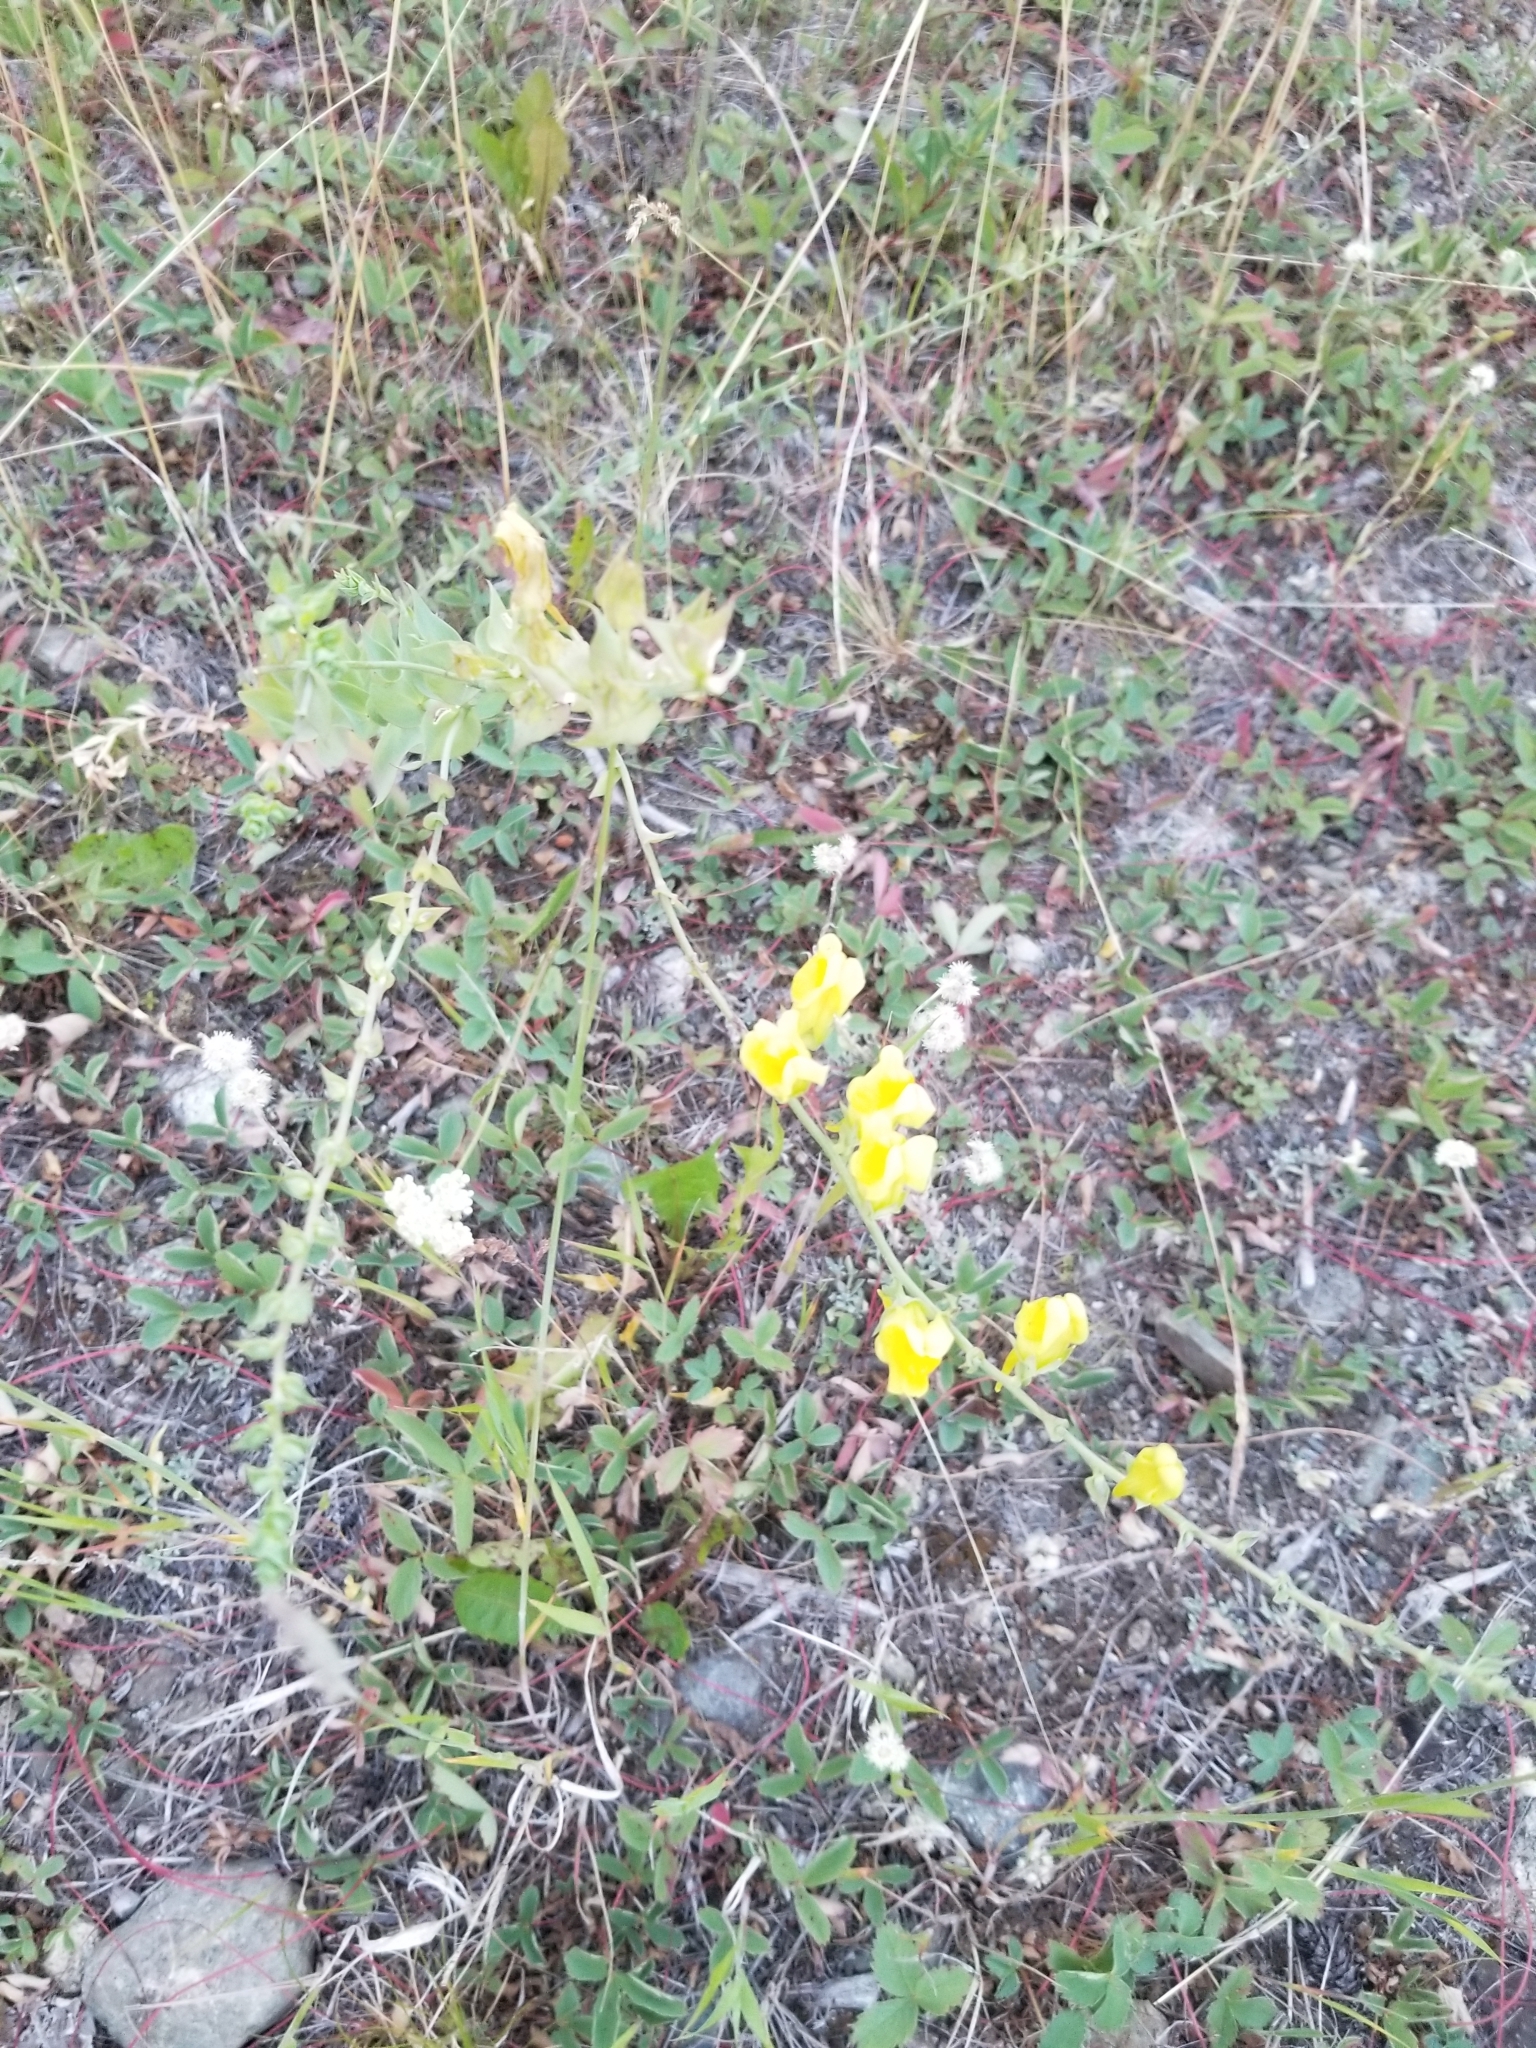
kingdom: Plantae
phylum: Tracheophyta
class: Magnoliopsida
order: Lamiales
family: Plantaginaceae
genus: Linaria
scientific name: Linaria dalmatica
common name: Dalmatian toadflax
